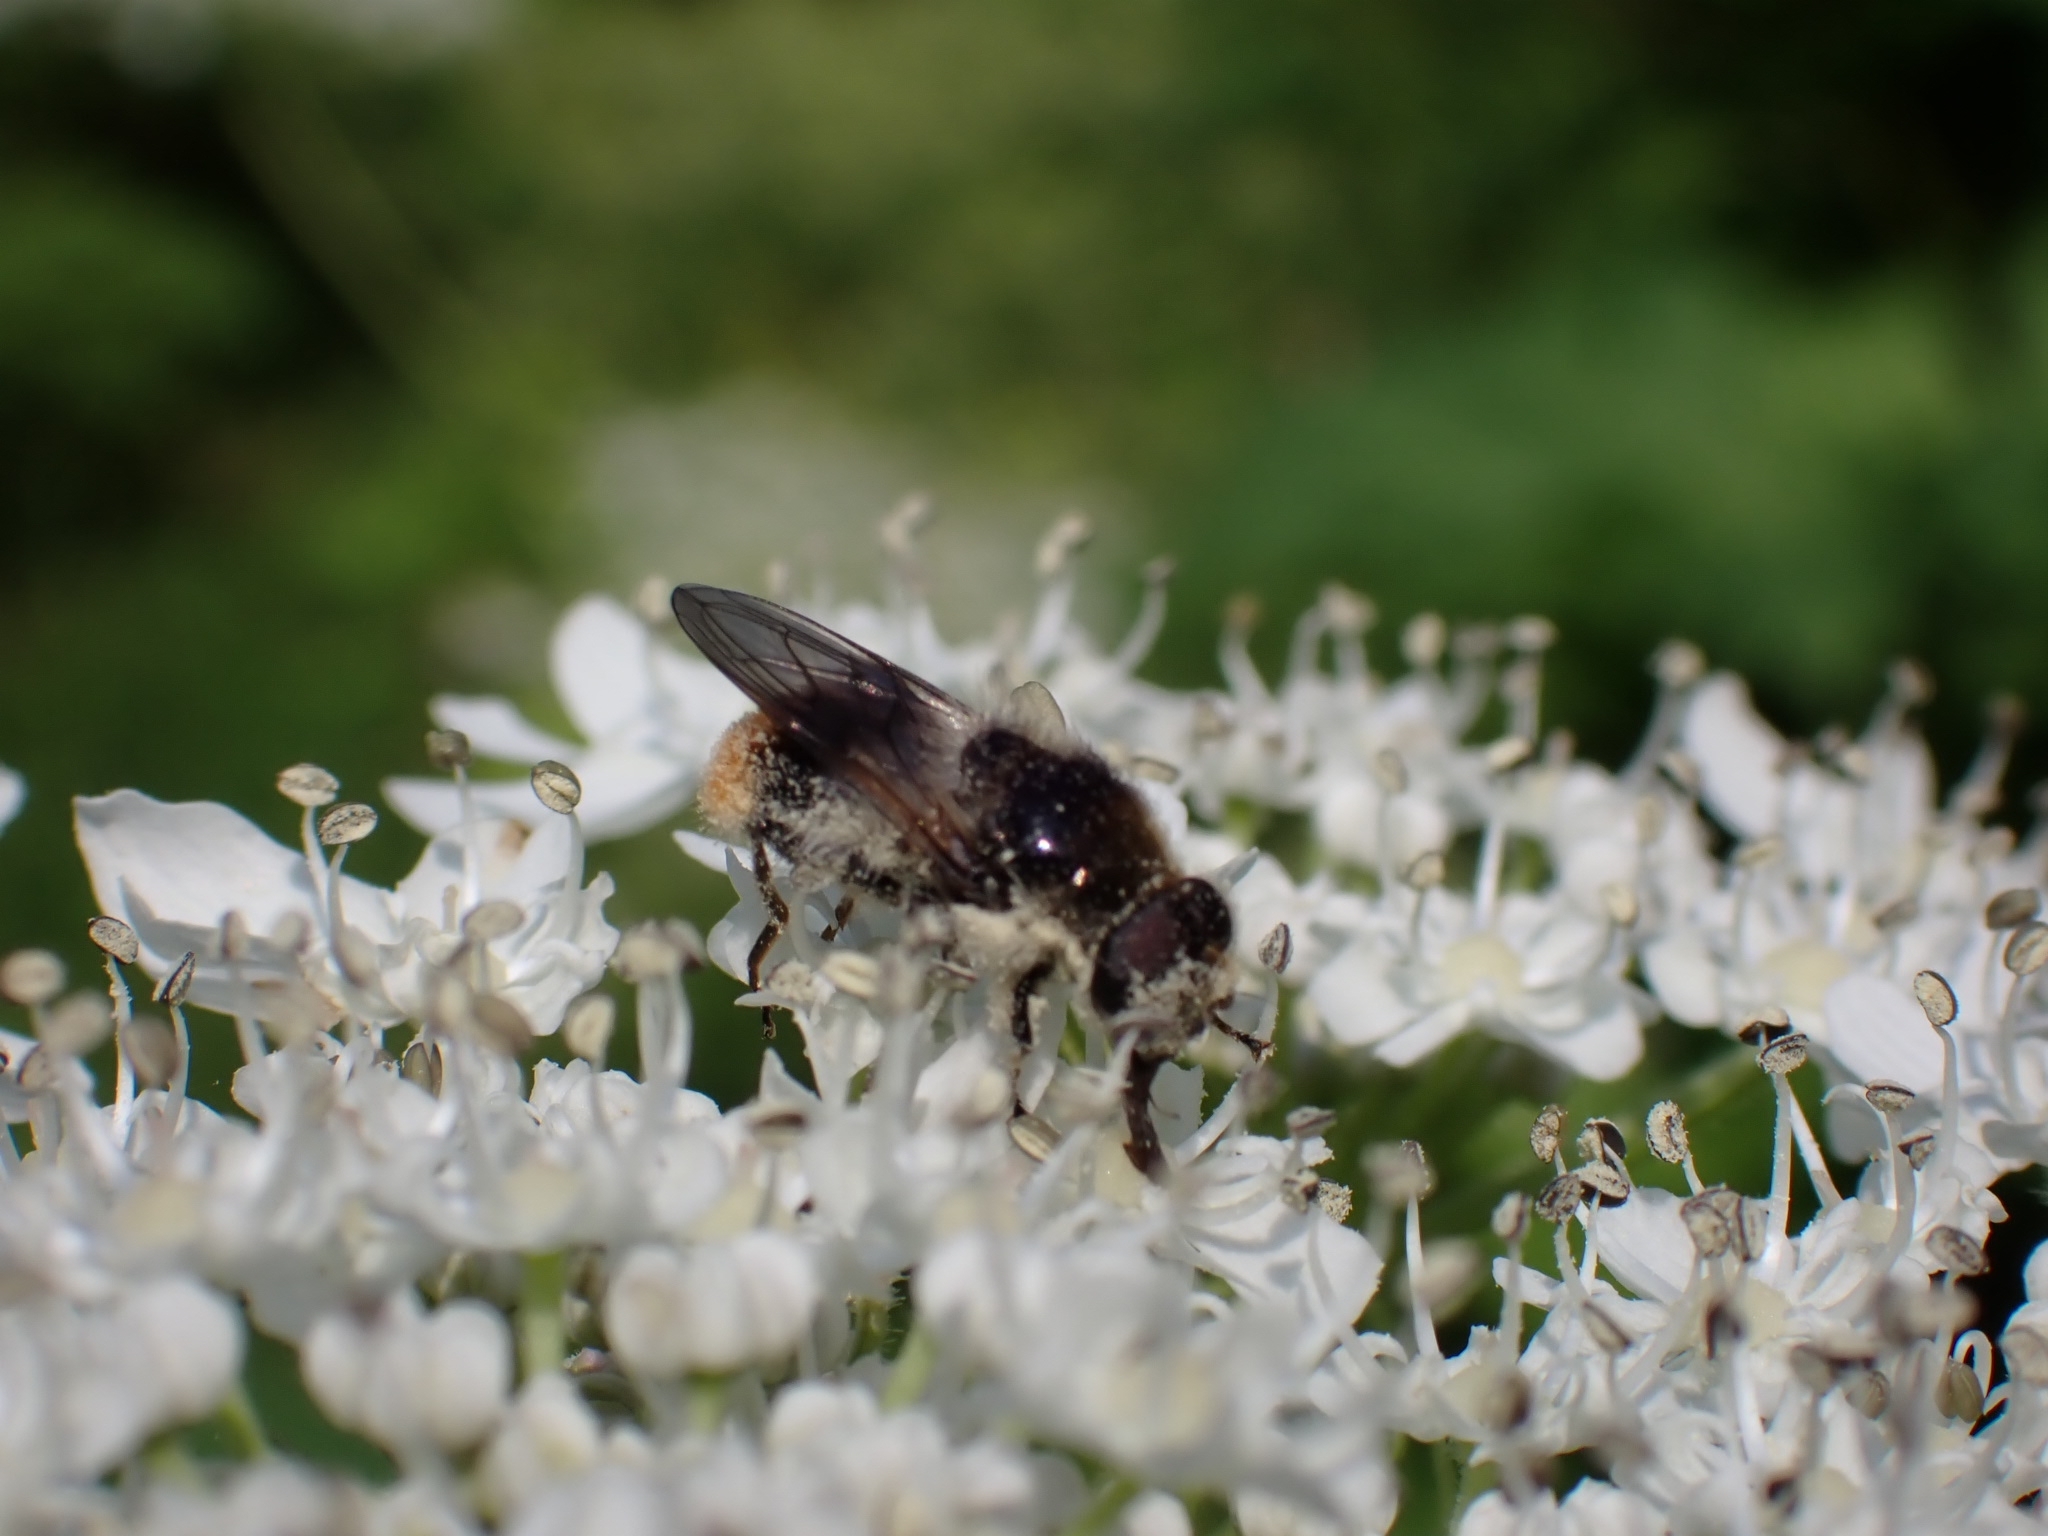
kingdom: Animalia
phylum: Arthropoda
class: Insecta
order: Diptera
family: Syrphidae
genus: Cheilosia
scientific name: Cheilosia illustrata
